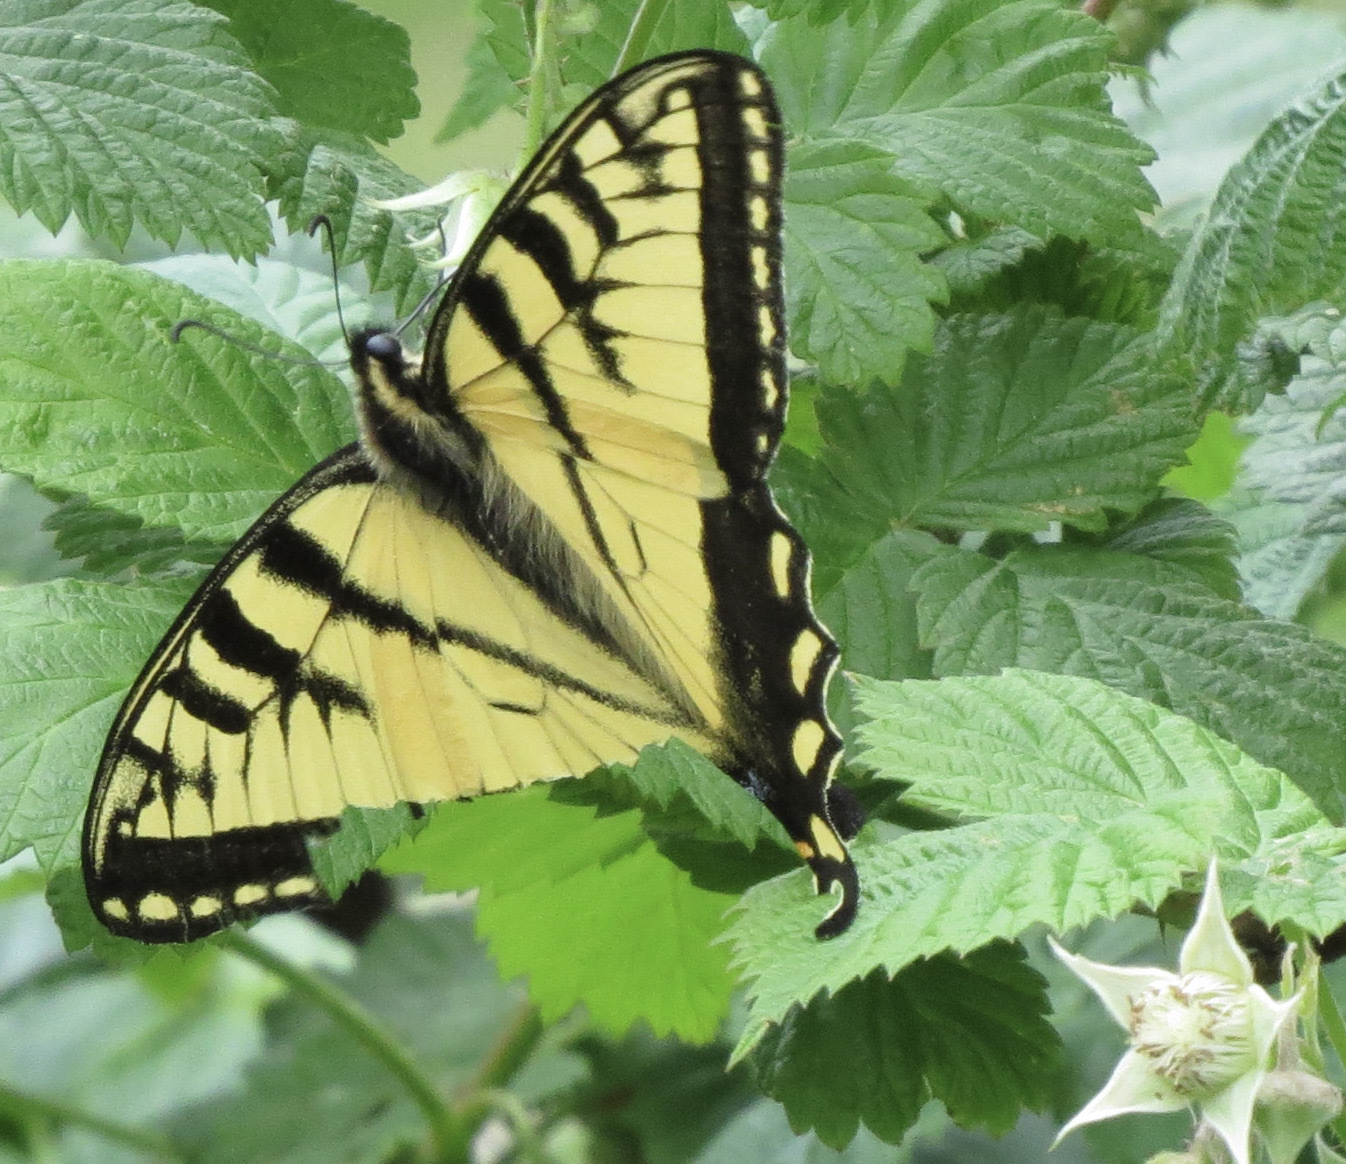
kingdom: Animalia
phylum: Arthropoda
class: Insecta
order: Lepidoptera
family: Papilionidae
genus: Papilio
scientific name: Papilio canadensis
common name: Canadian tiger swallowtail
